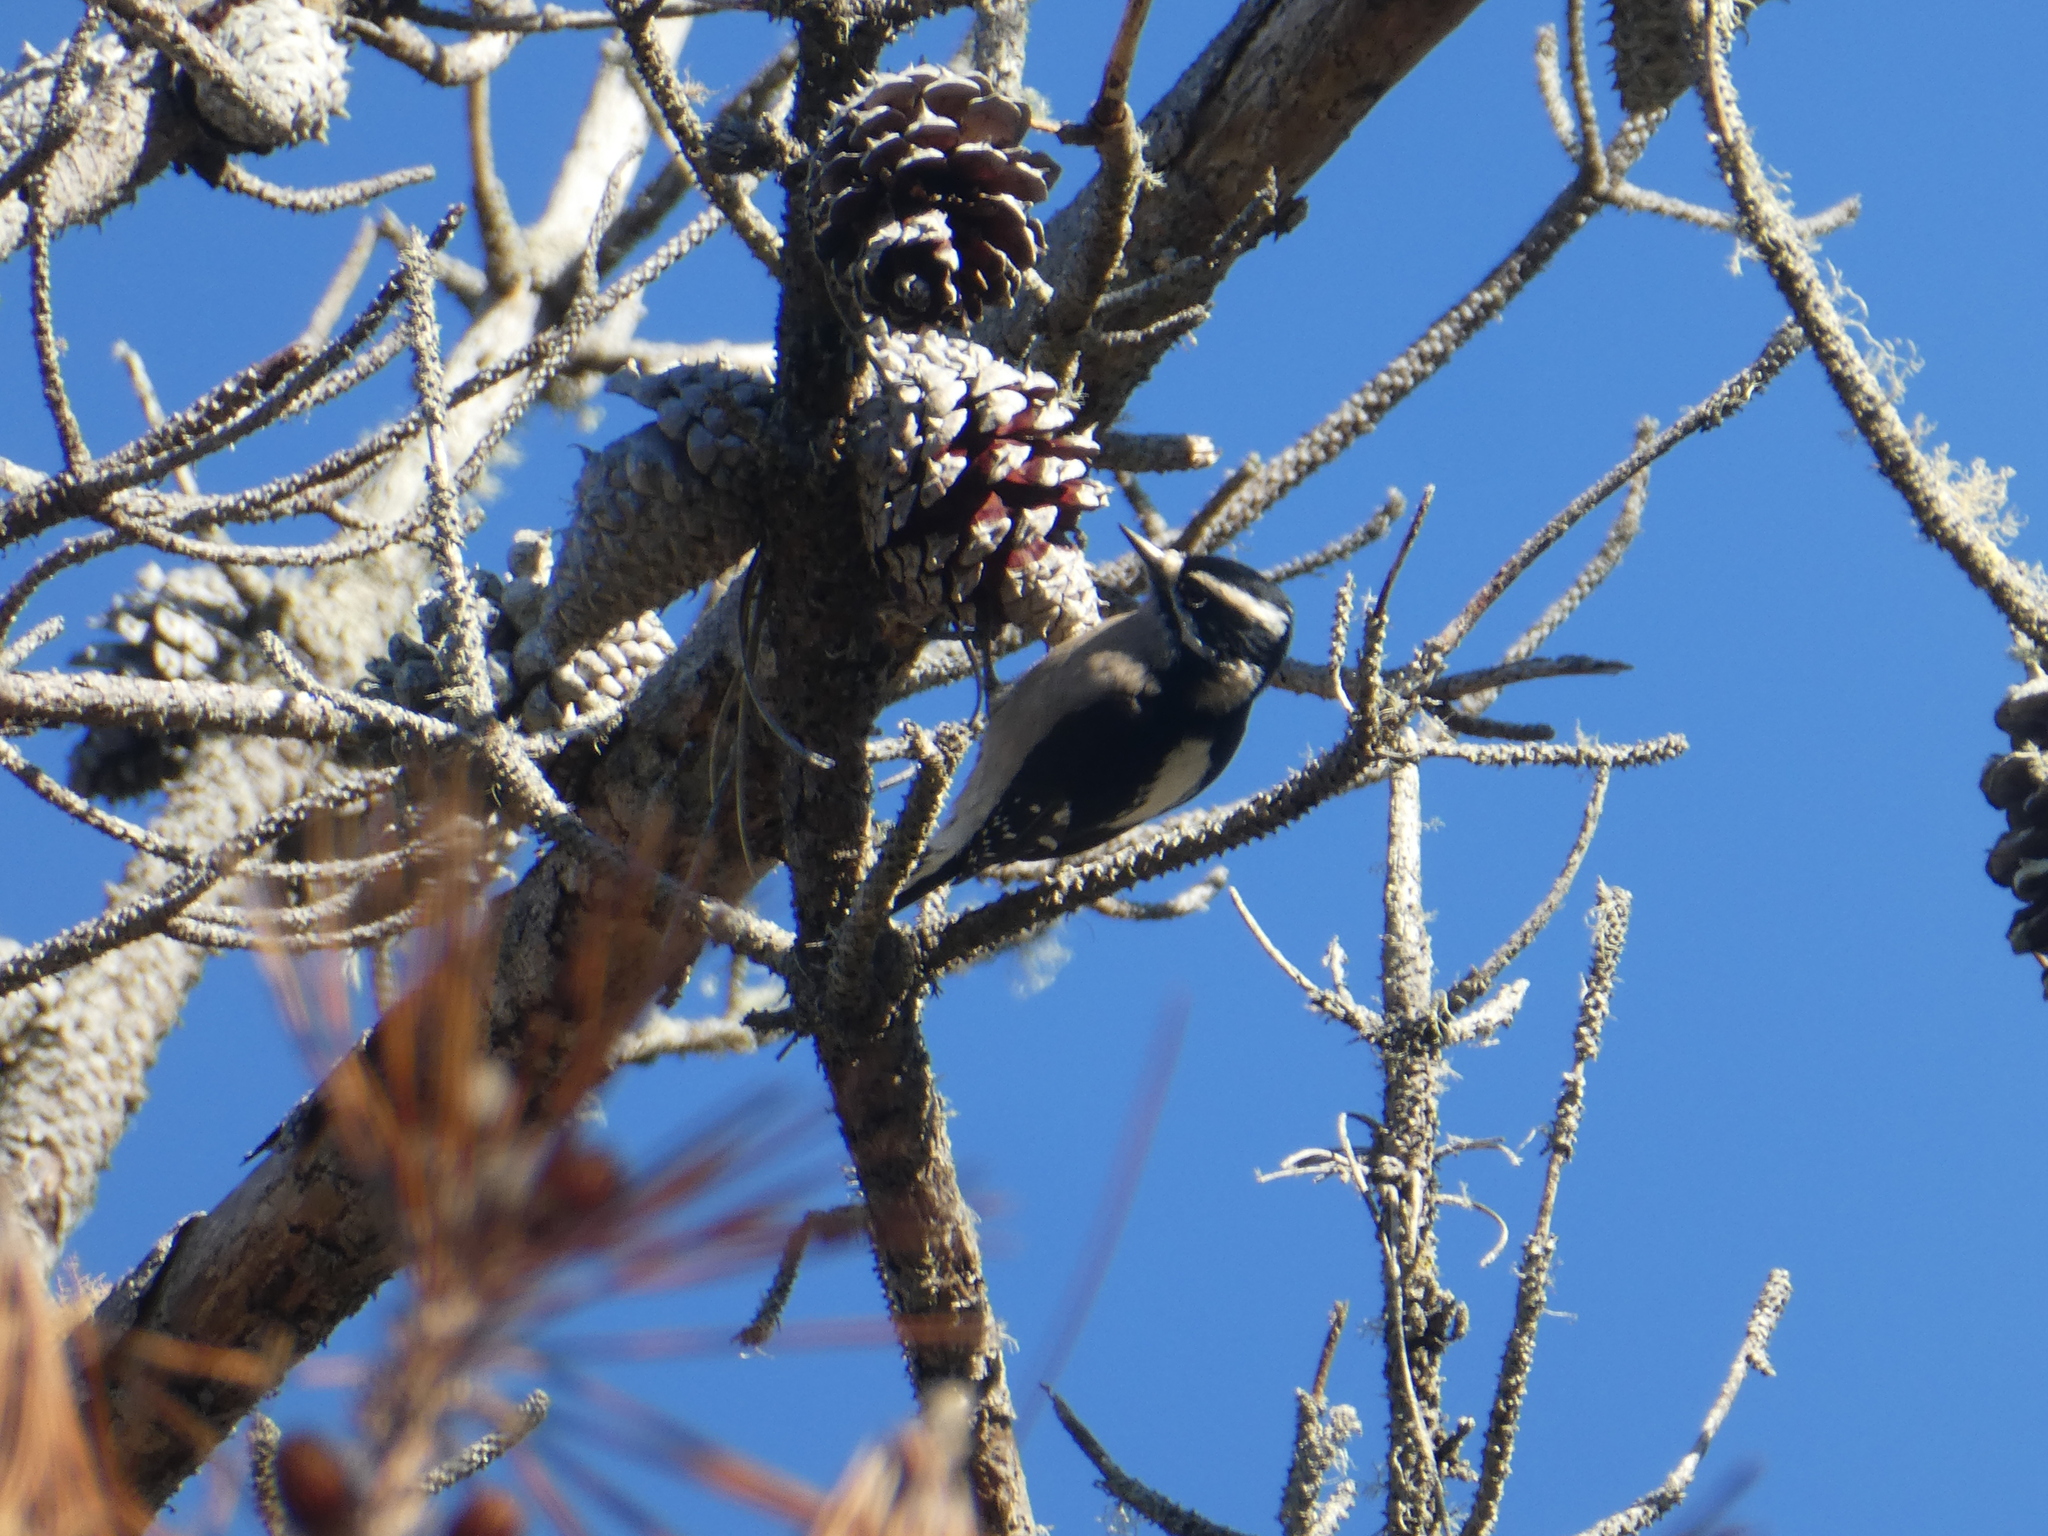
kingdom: Animalia
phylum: Chordata
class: Aves
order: Piciformes
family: Picidae
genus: Dryobates
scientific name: Dryobates pubescens
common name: Downy woodpecker
